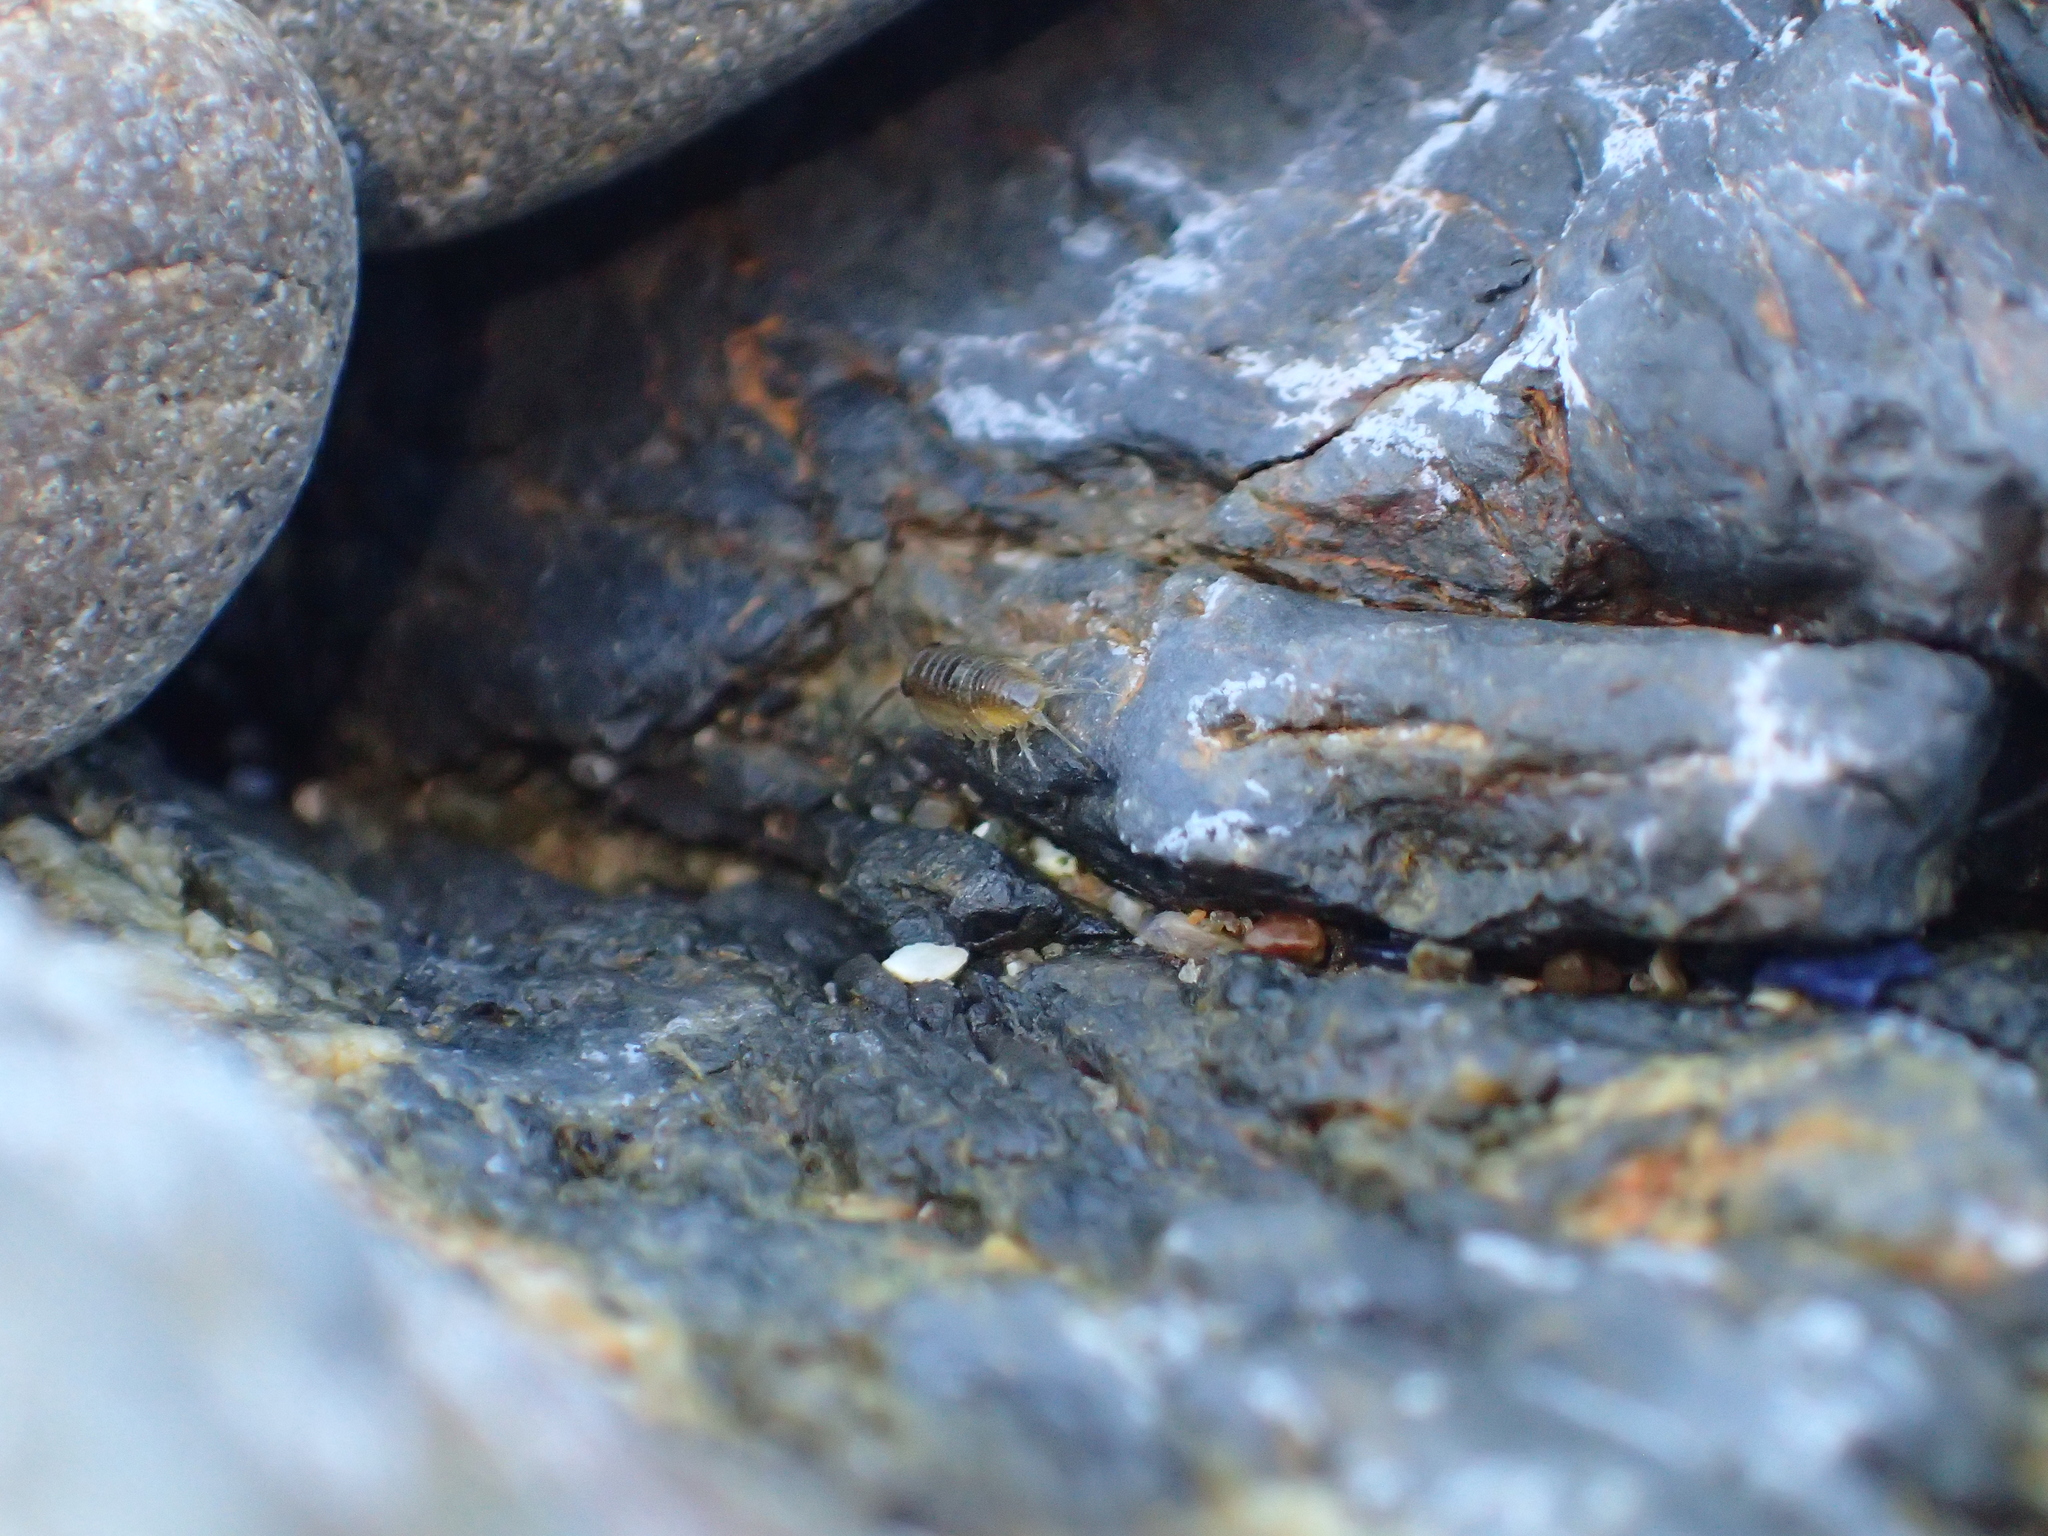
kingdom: Animalia
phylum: Arthropoda
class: Malacostraca
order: Isopoda
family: Ligiidae
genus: Ligia
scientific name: Ligia novizealandiae
